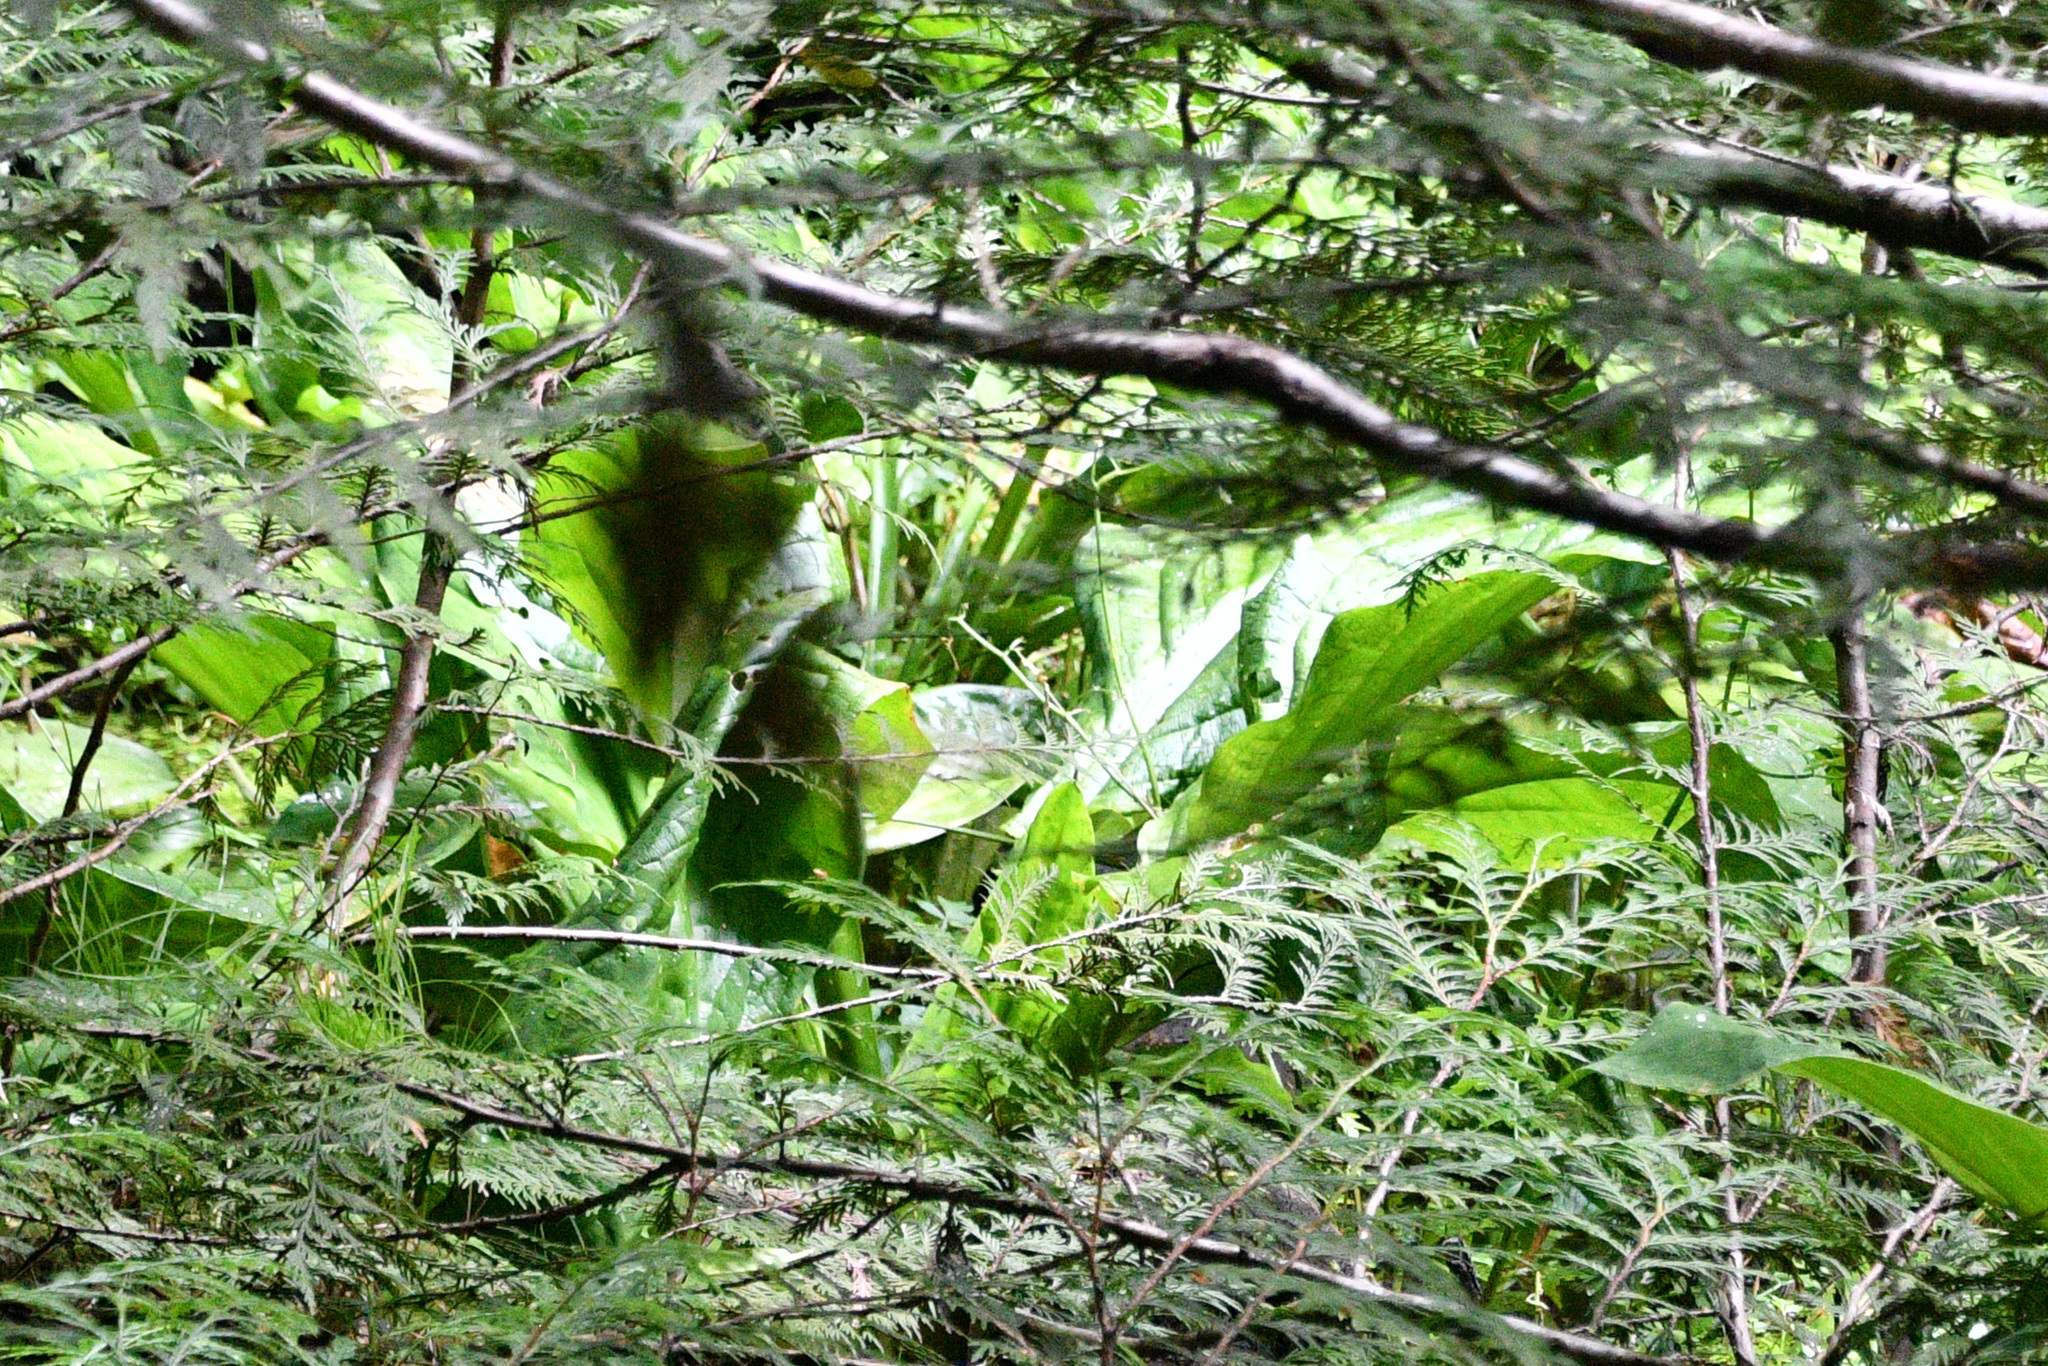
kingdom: Plantae
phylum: Tracheophyta
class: Liliopsida
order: Alismatales
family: Araceae
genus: Lysichiton
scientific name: Lysichiton americanus
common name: American skunk cabbage
